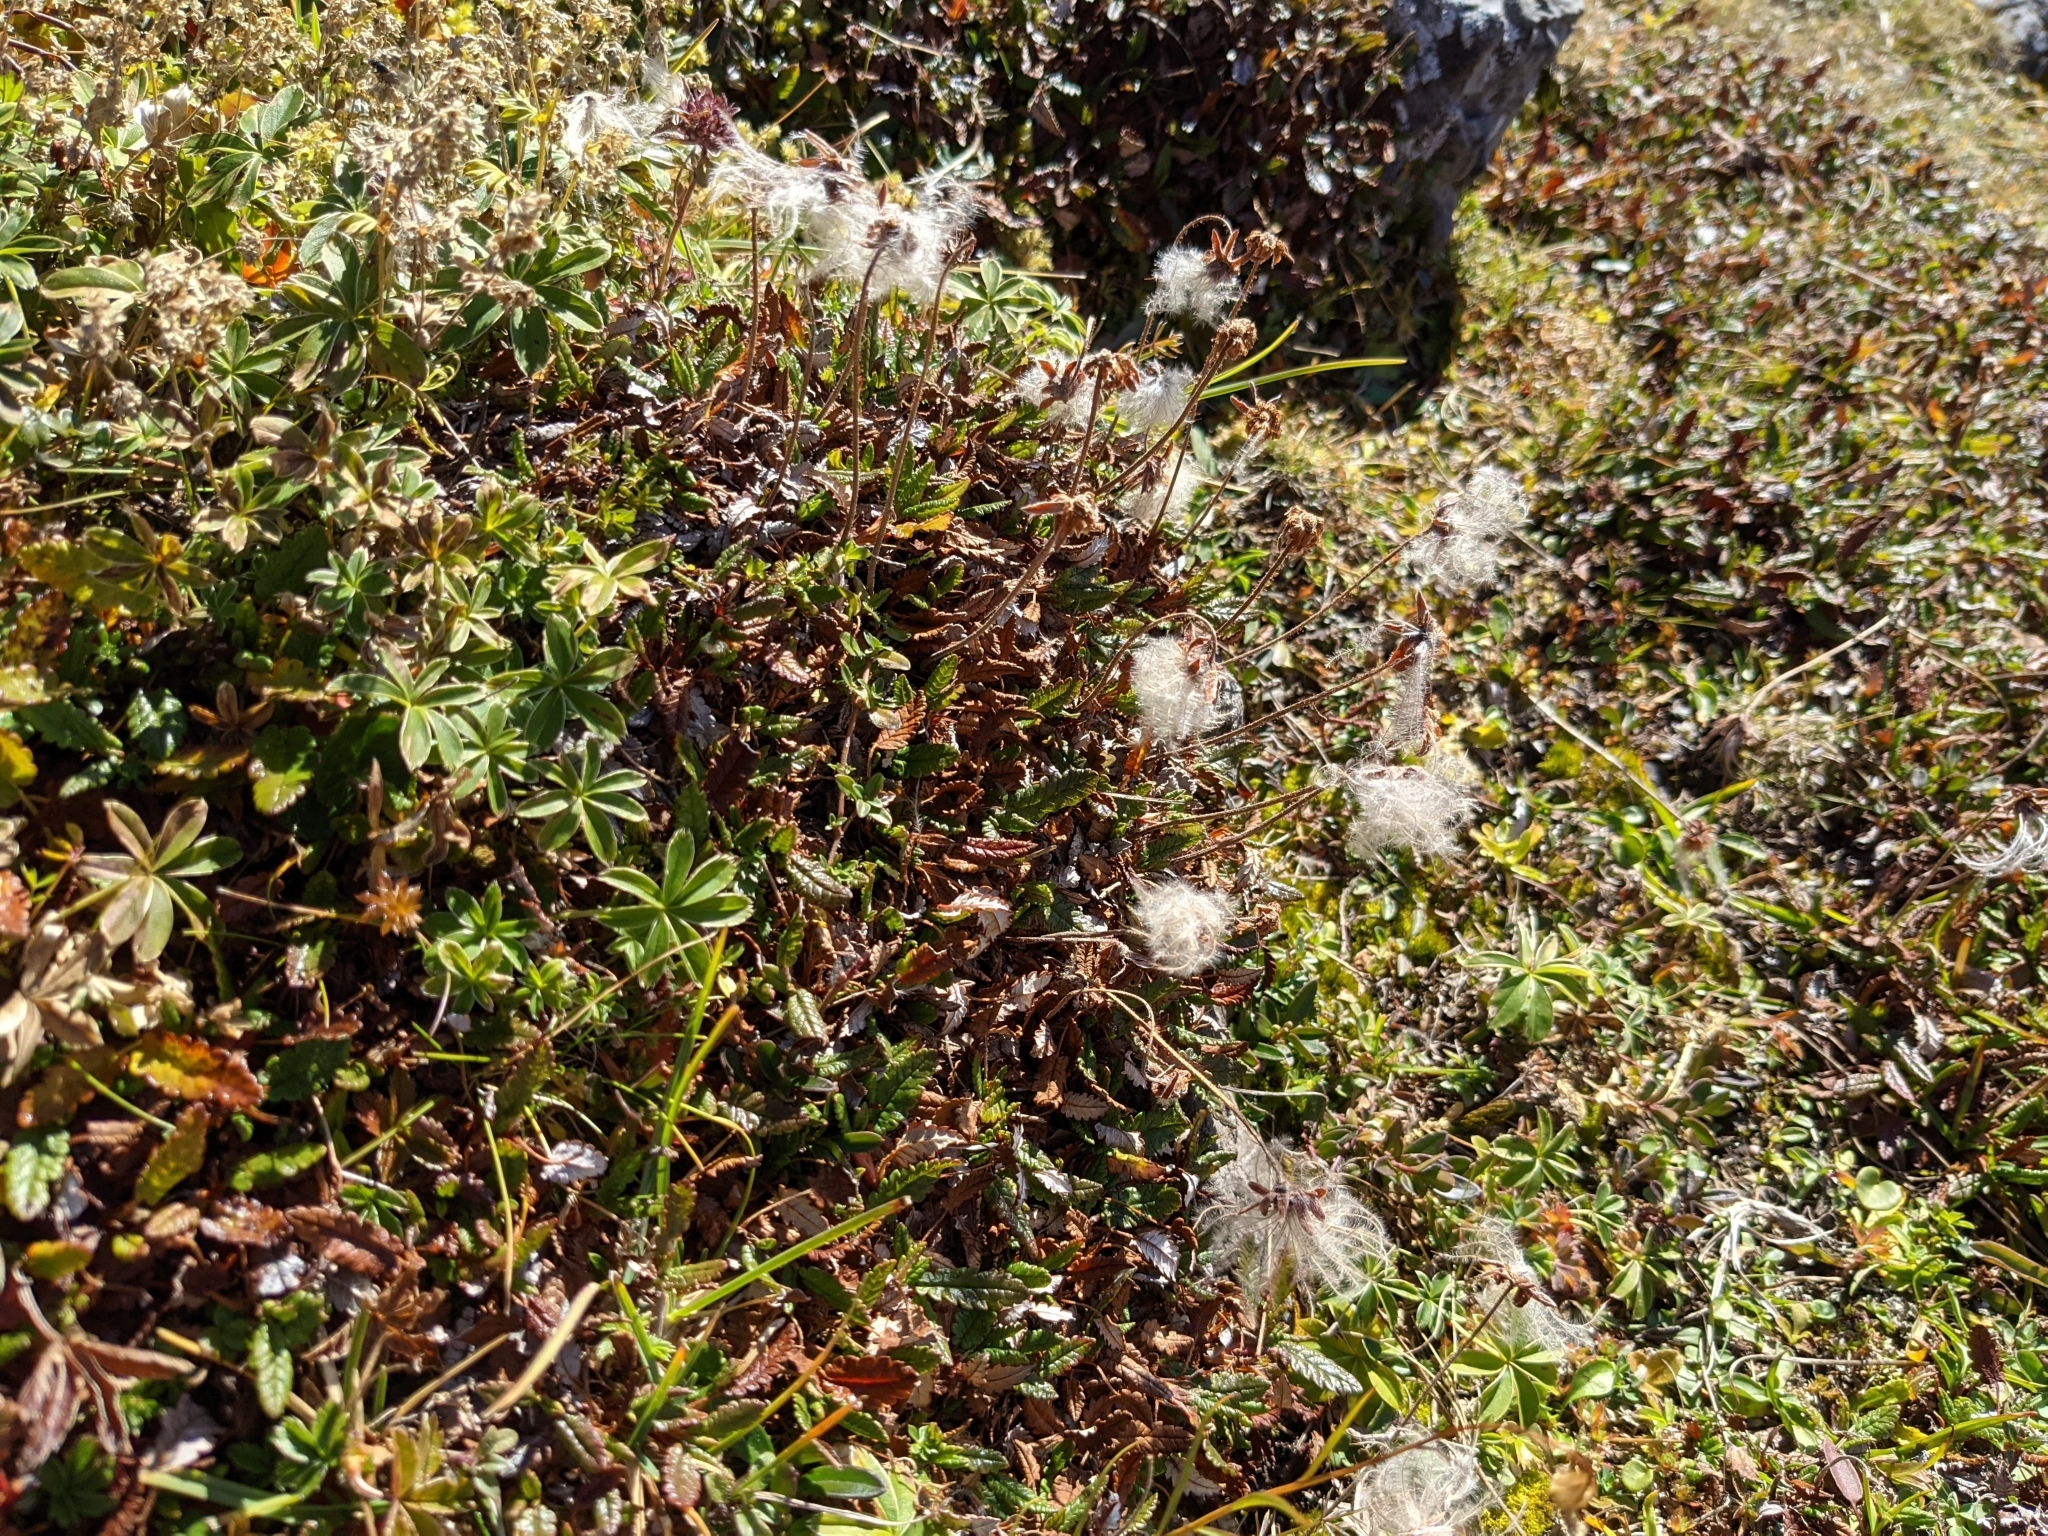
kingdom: Plantae
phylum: Tracheophyta
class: Magnoliopsida
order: Rosales
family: Rosaceae
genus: Dryas
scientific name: Dryas octopetala
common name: Eight-petal mountain-avens
